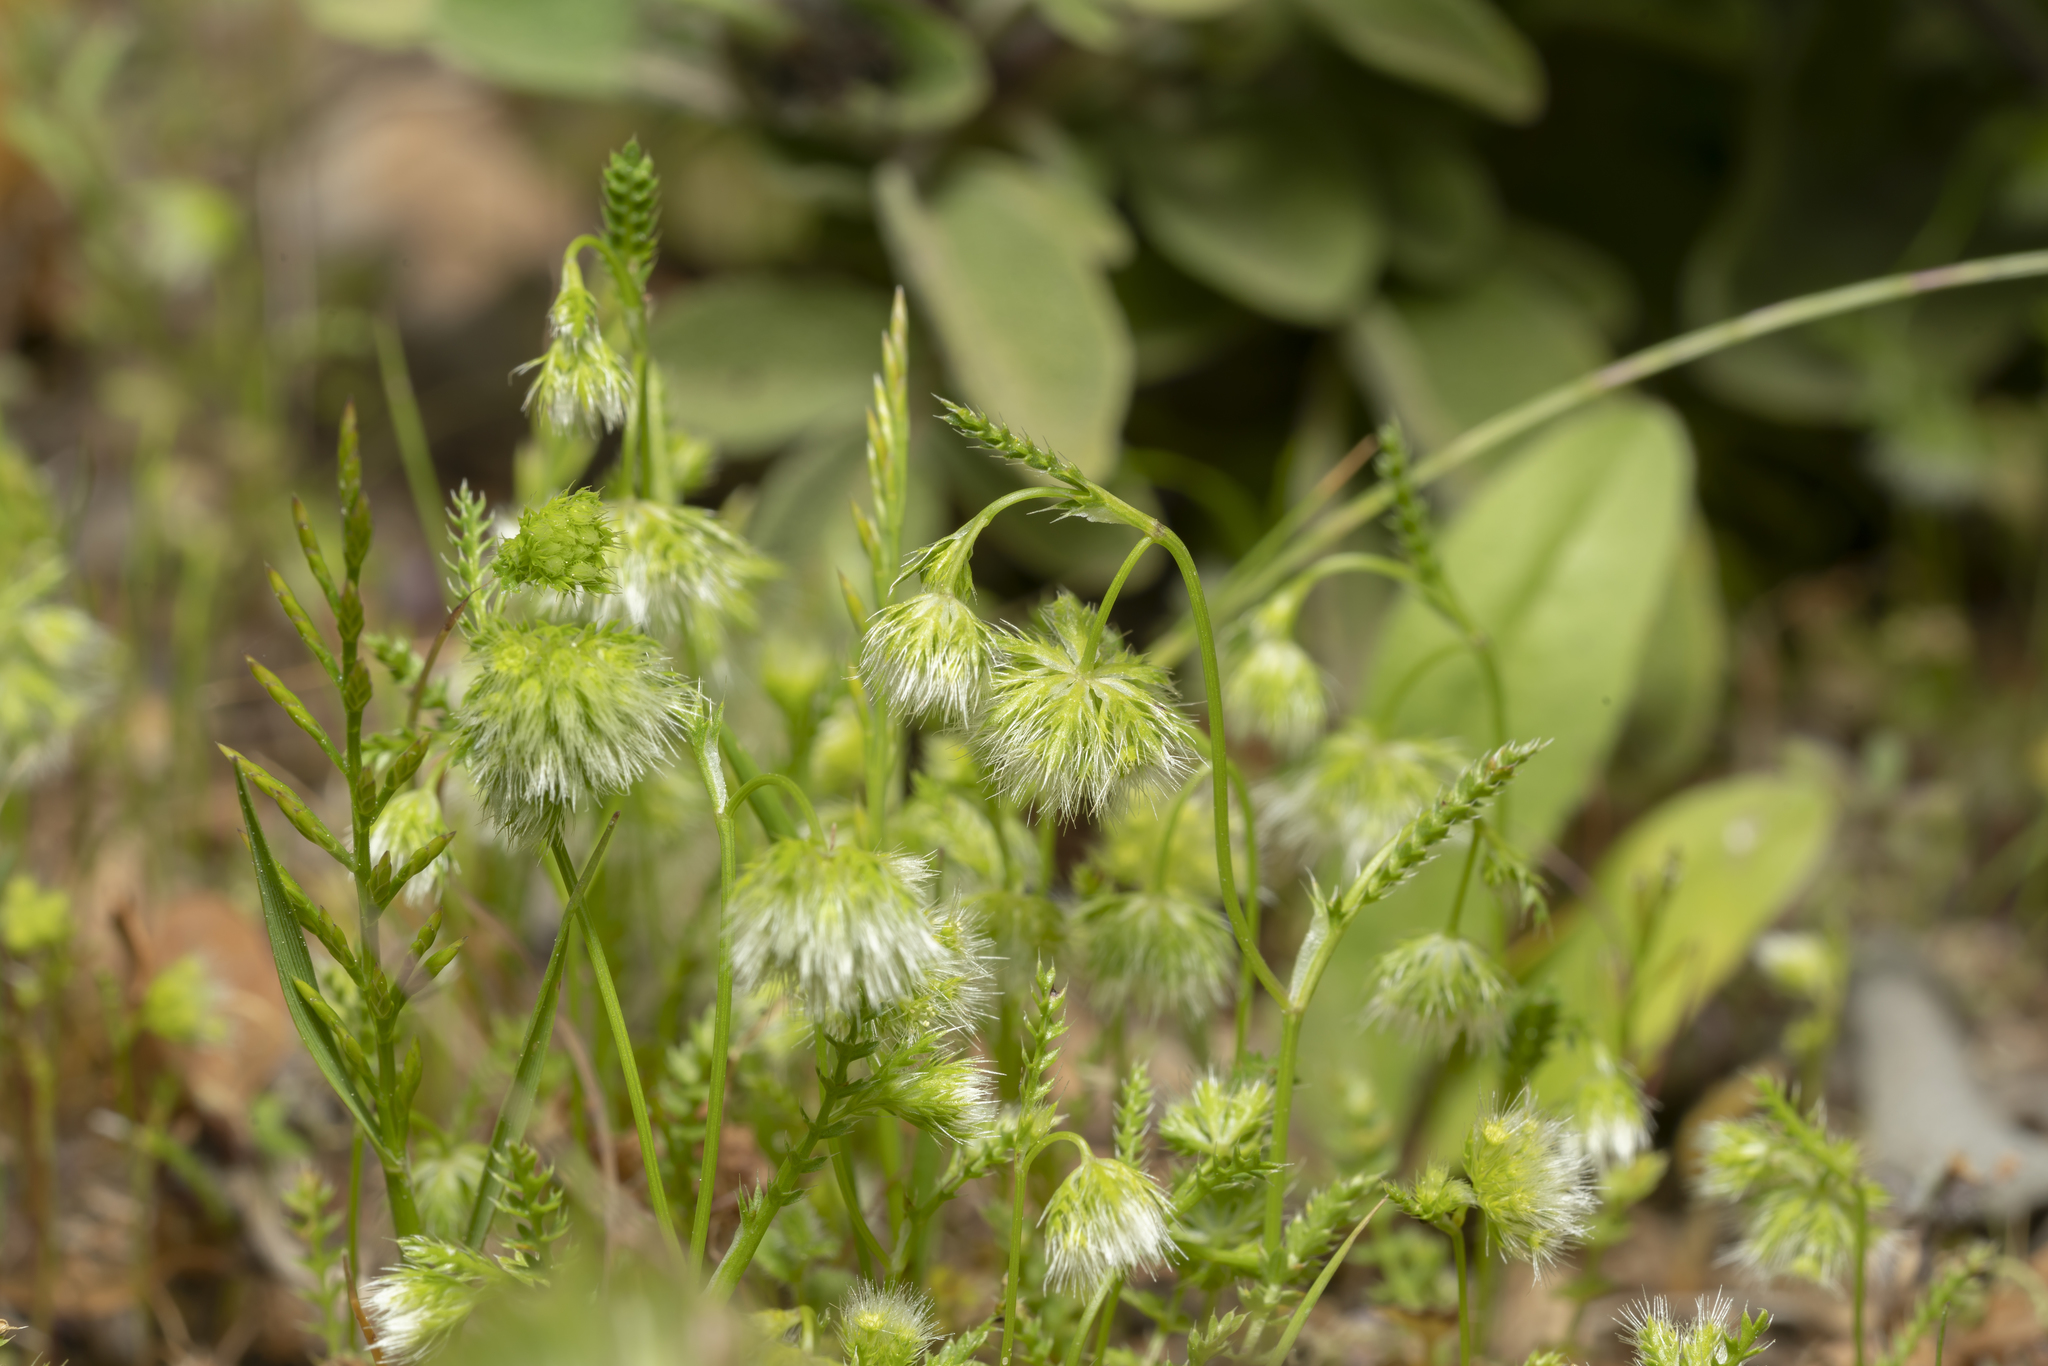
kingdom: Plantae
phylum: Tracheophyta
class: Magnoliopsida
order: Apiales
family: Apiaceae
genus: Lagoecia
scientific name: Lagoecia cuminoides
